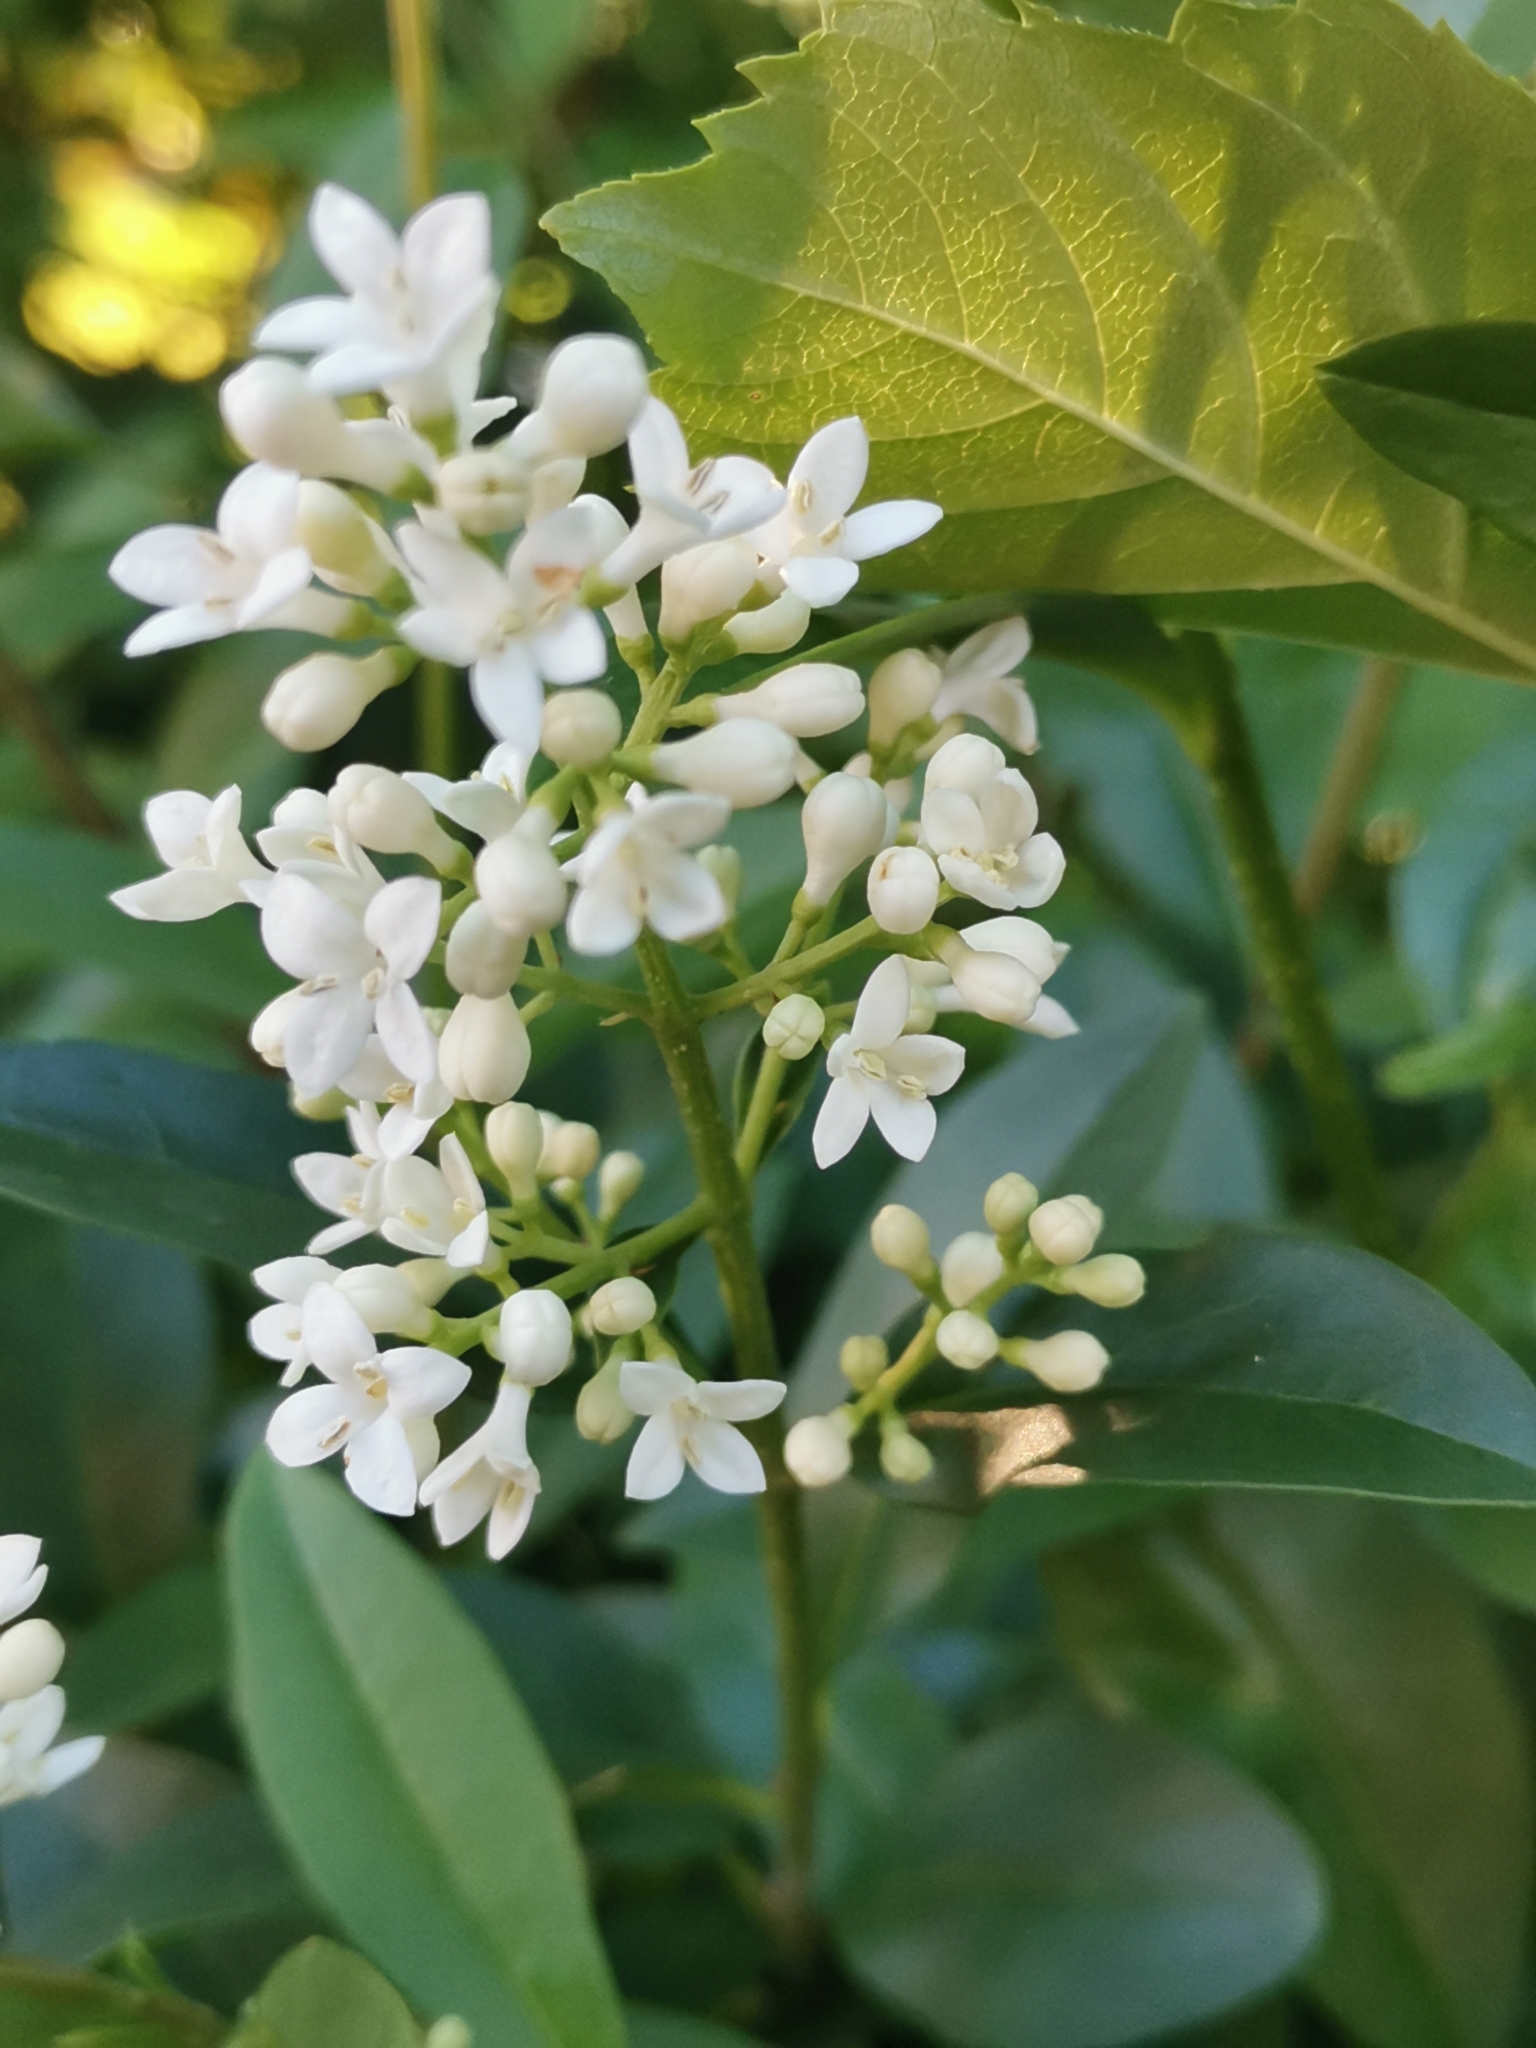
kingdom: Plantae
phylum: Tracheophyta
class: Magnoliopsida
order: Lamiales
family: Oleaceae
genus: Ligustrum
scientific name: Ligustrum vulgare
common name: Wild privet
